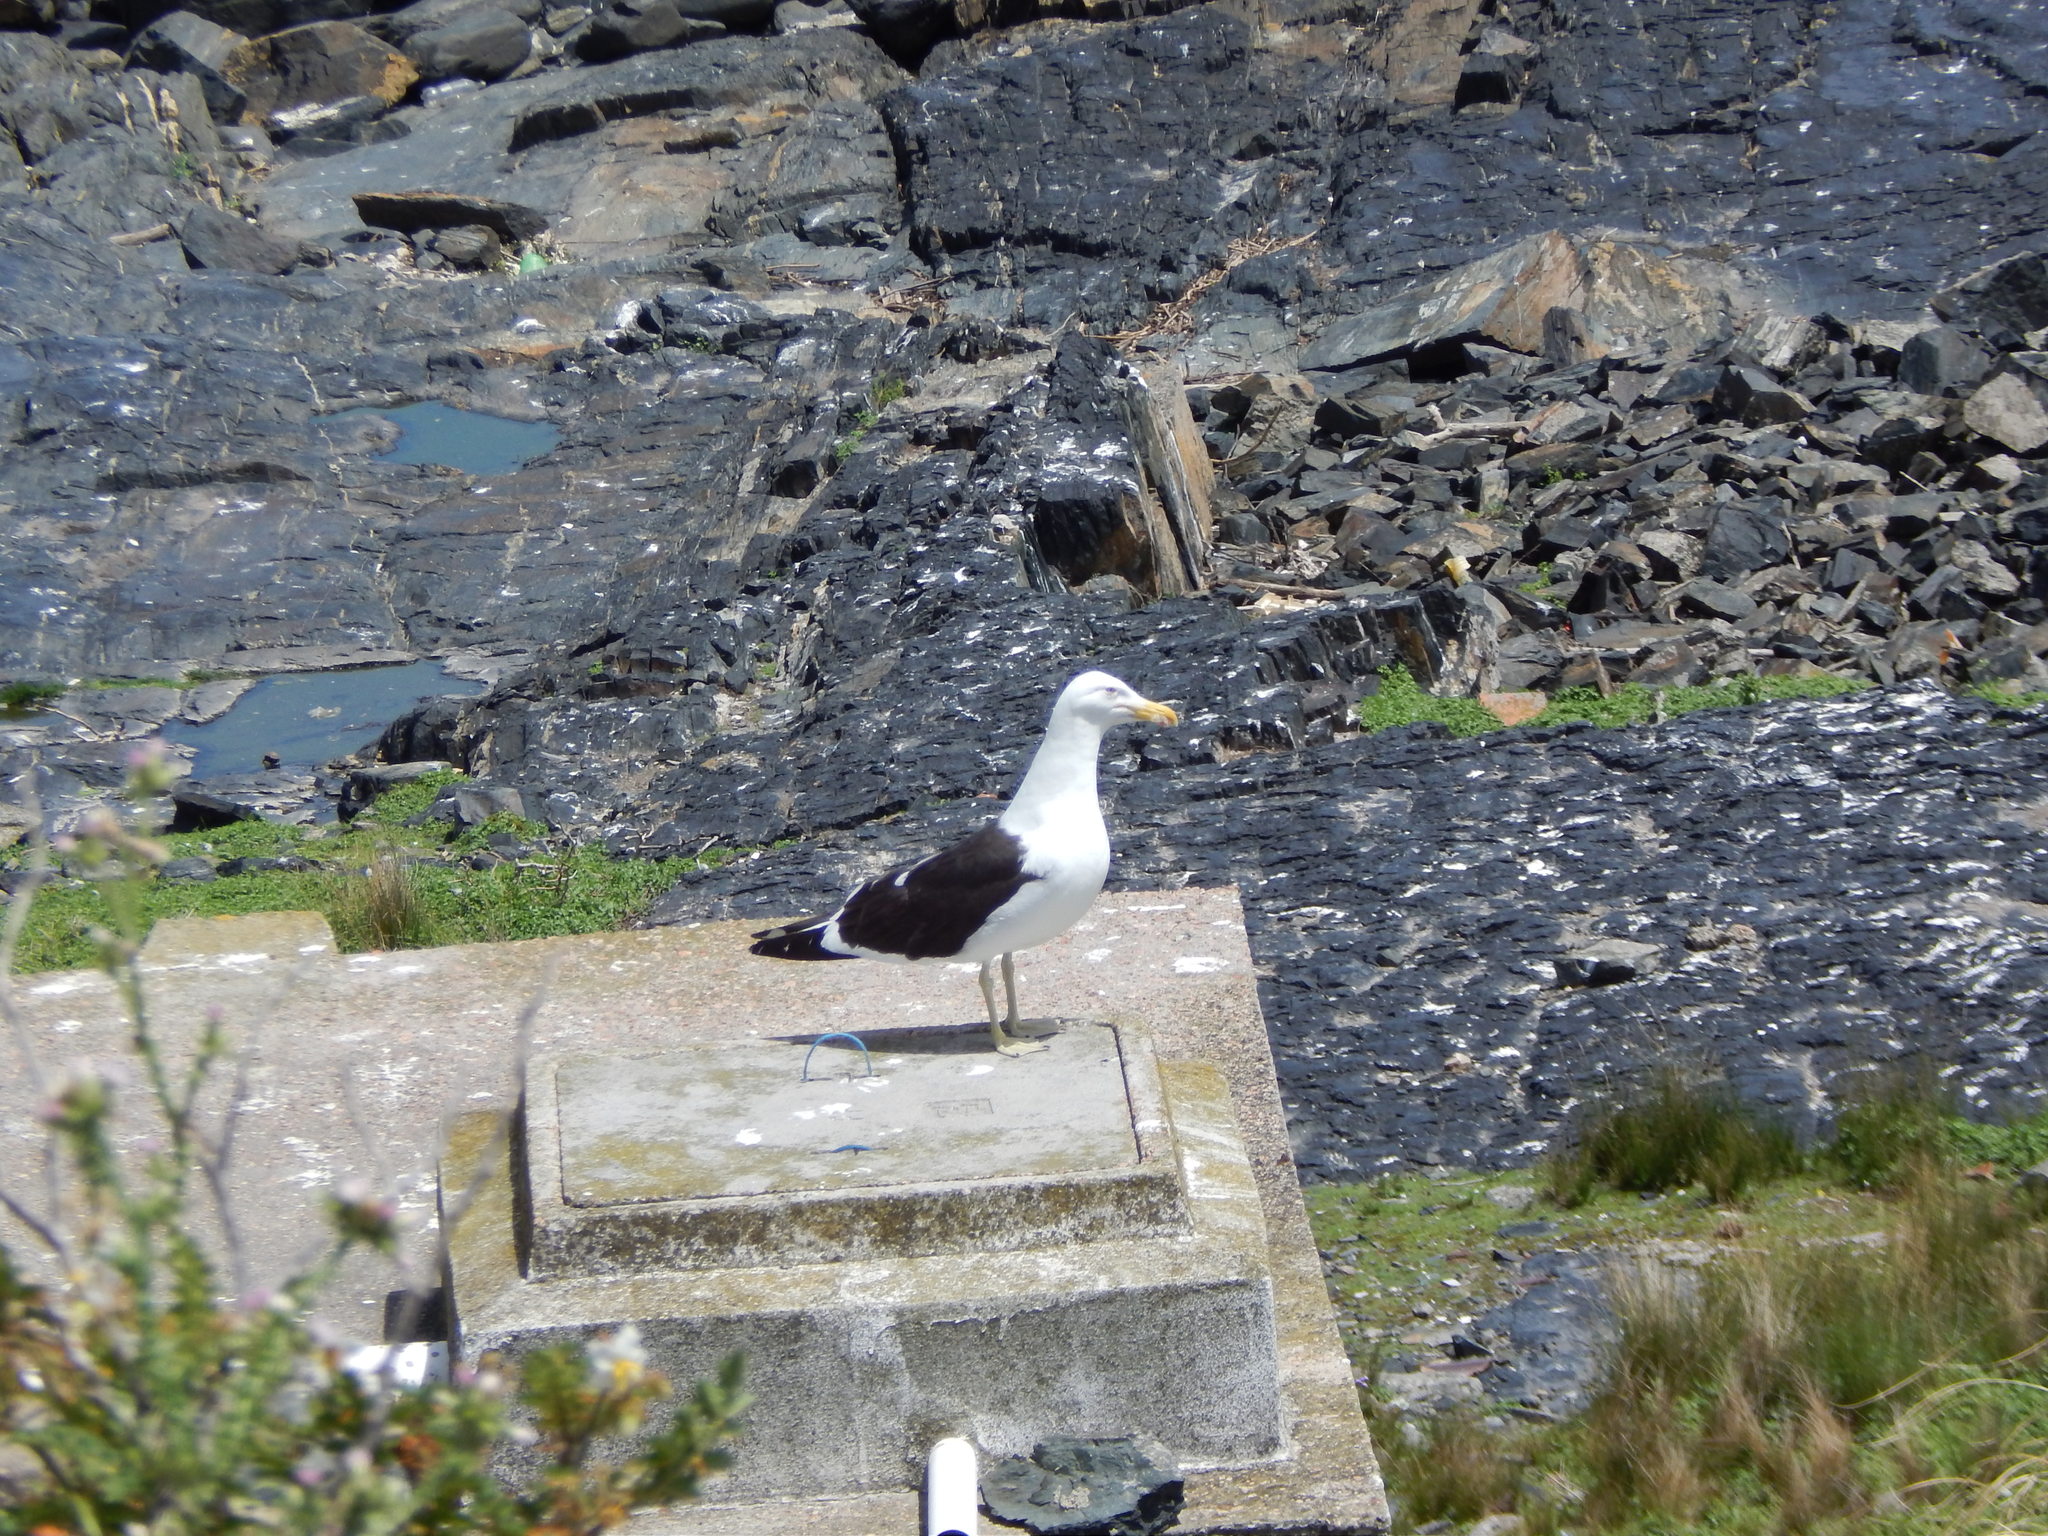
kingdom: Animalia
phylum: Chordata
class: Aves
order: Charadriiformes
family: Laridae
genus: Larus
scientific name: Larus dominicanus
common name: Kelp gull
